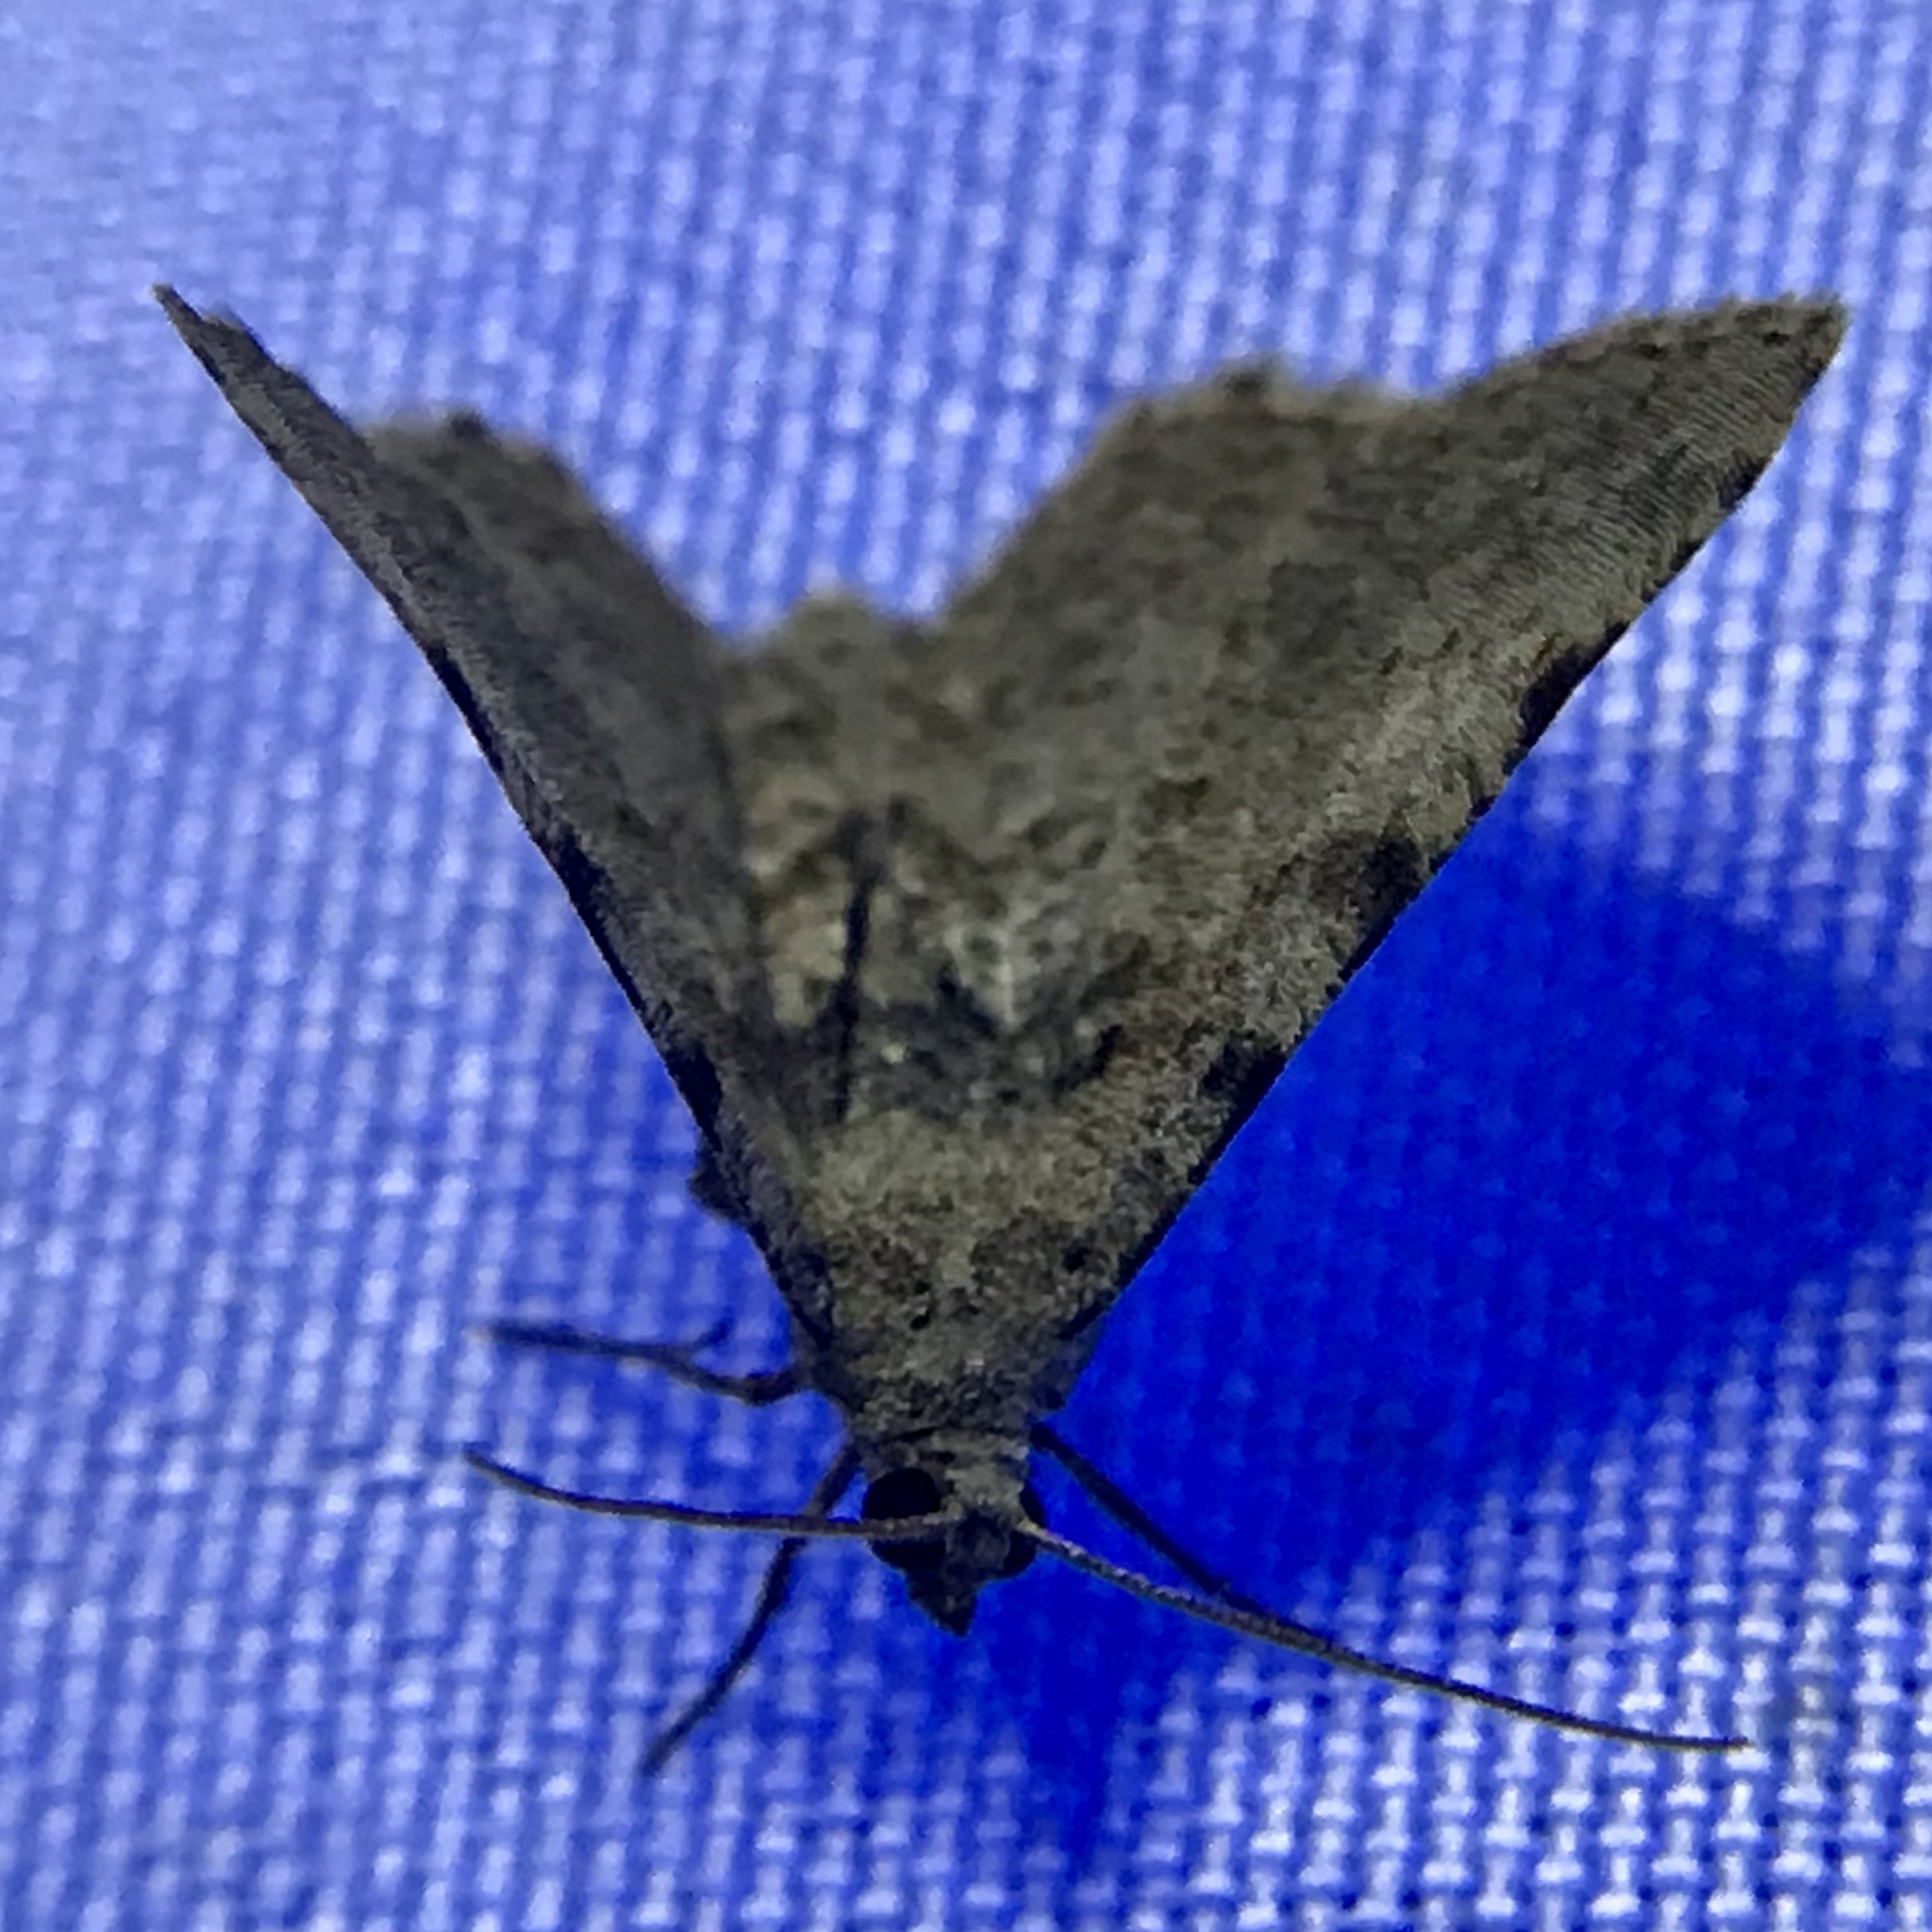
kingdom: Animalia
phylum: Arthropoda
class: Insecta
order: Lepidoptera
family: Geometridae
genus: Digrammia
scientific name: Digrammia gnophosaria
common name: Hollow-spotted angle
